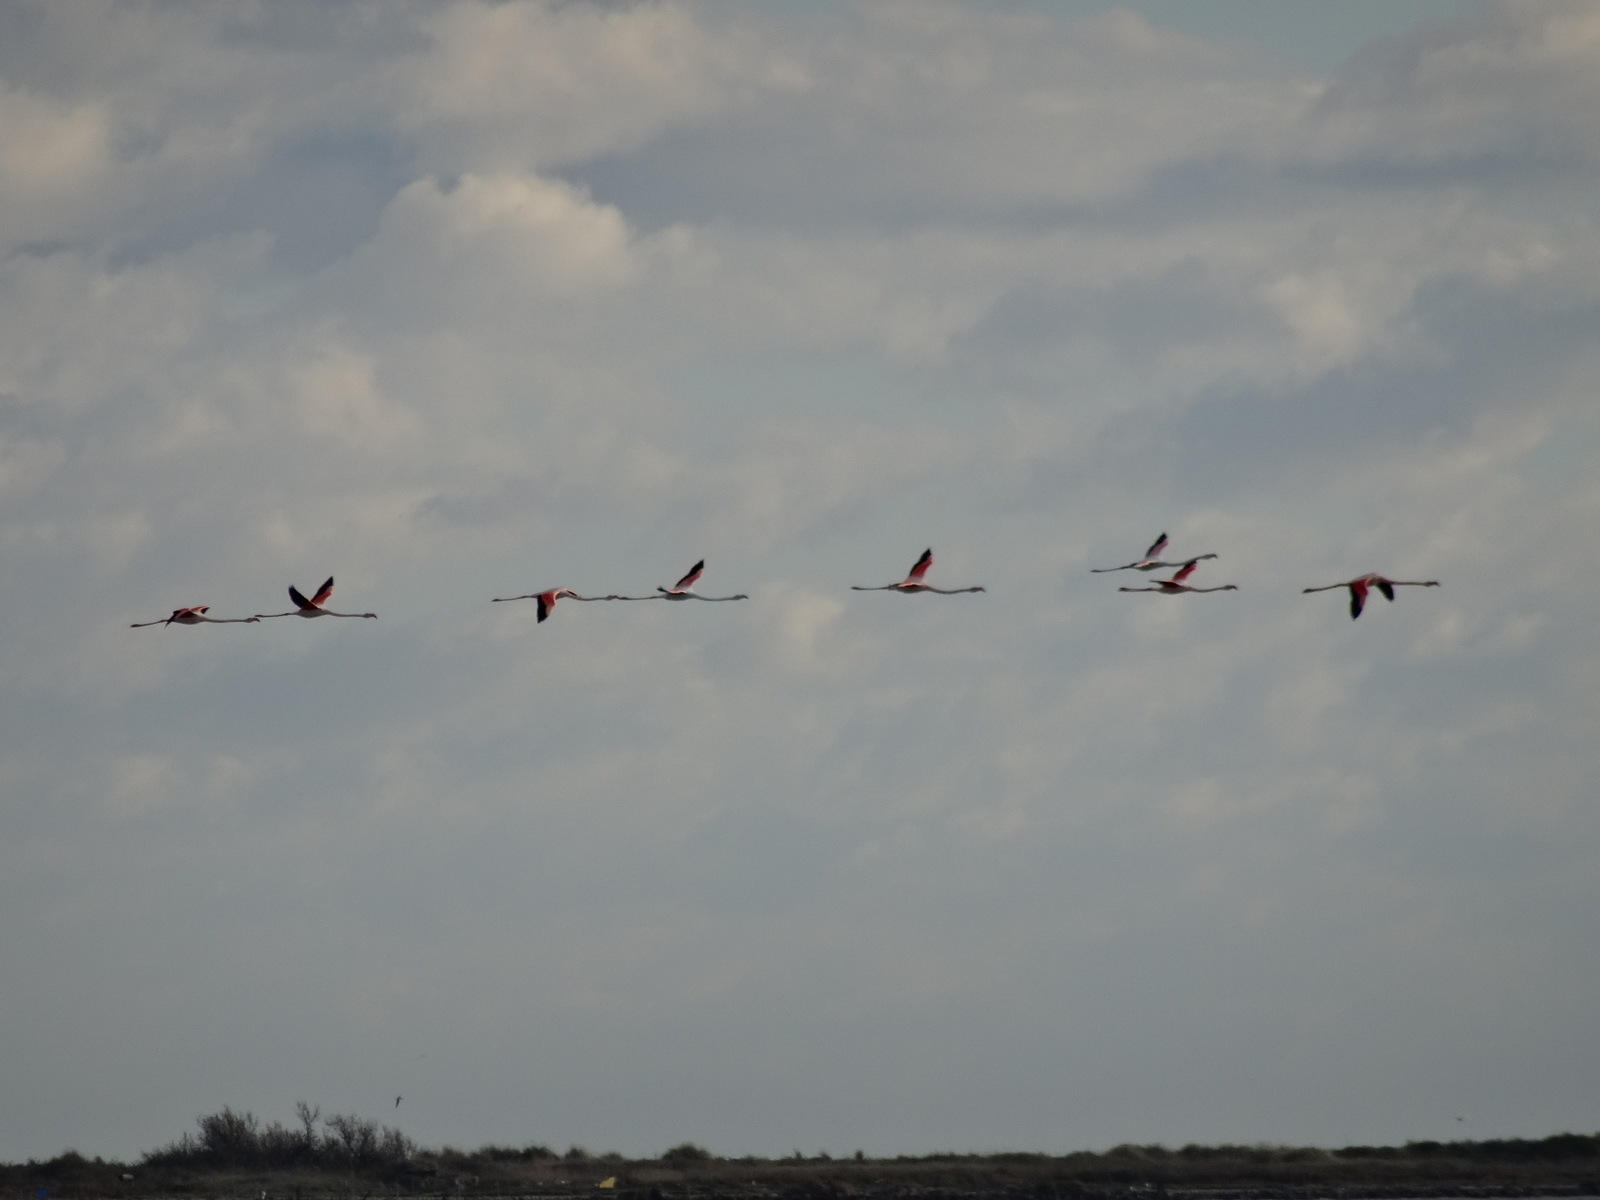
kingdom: Animalia
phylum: Chordata
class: Aves
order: Phoenicopteriformes
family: Phoenicopteridae
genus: Phoenicopterus
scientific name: Phoenicopterus roseus
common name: Greater flamingo
